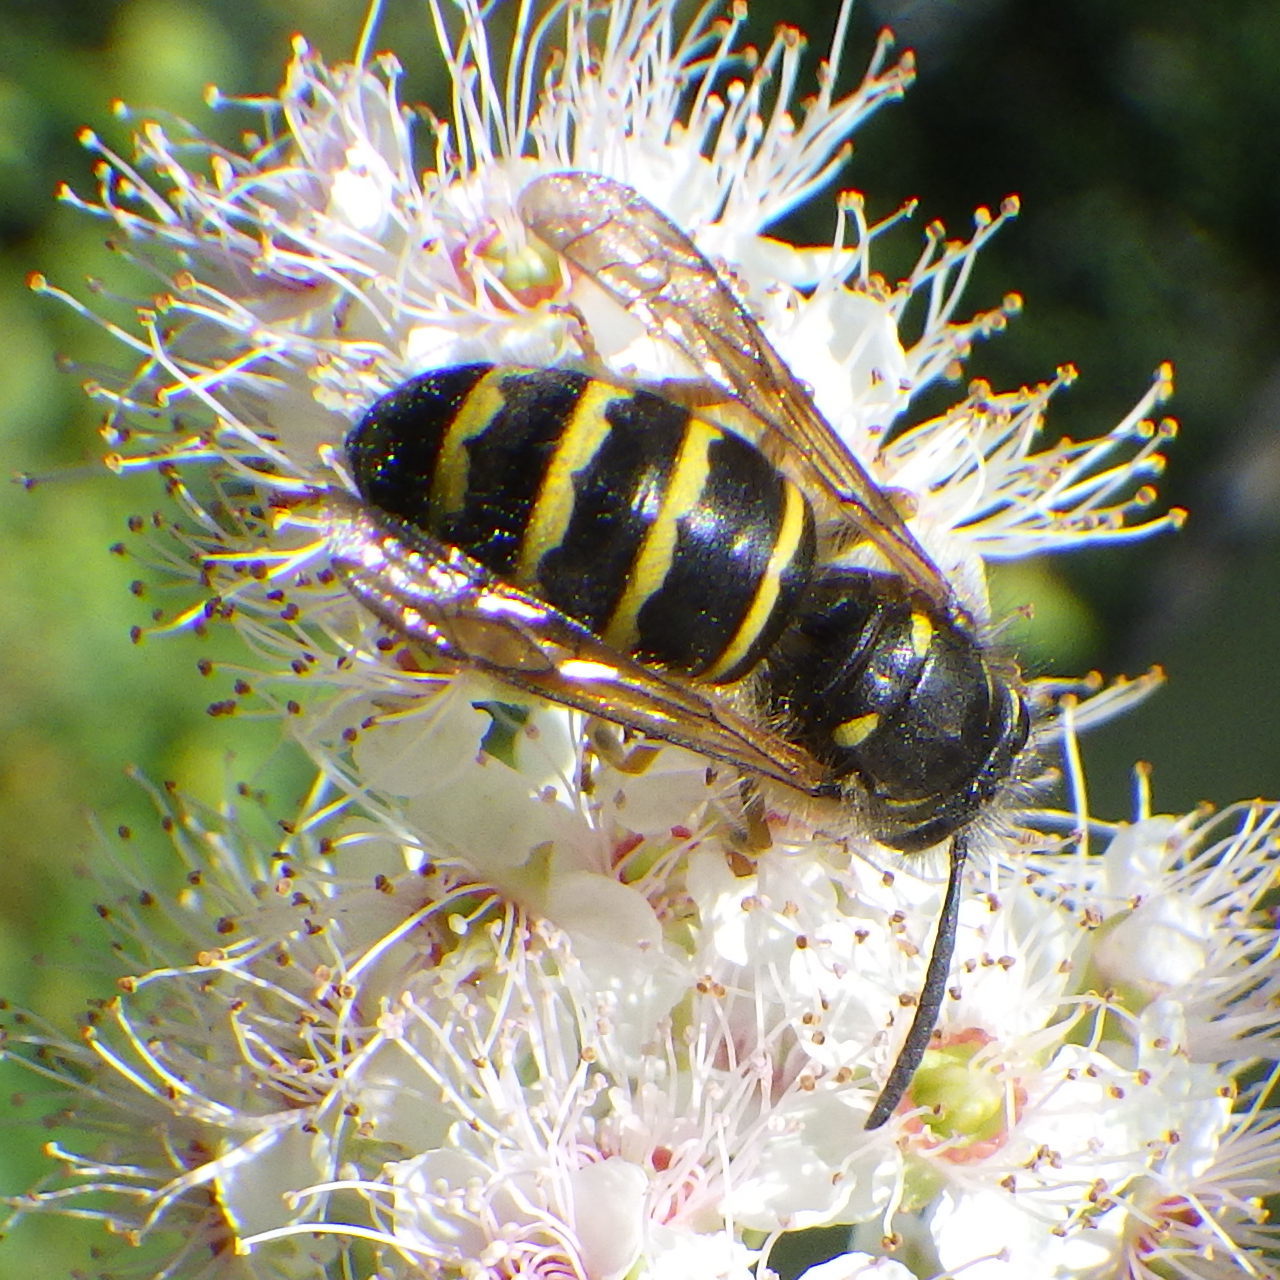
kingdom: Animalia
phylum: Arthropoda
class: Insecta
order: Hymenoptera
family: Vespidae
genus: Dolichovespula
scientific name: Dolichovespula norvegicoides
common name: Northern aerial yellowjacket
